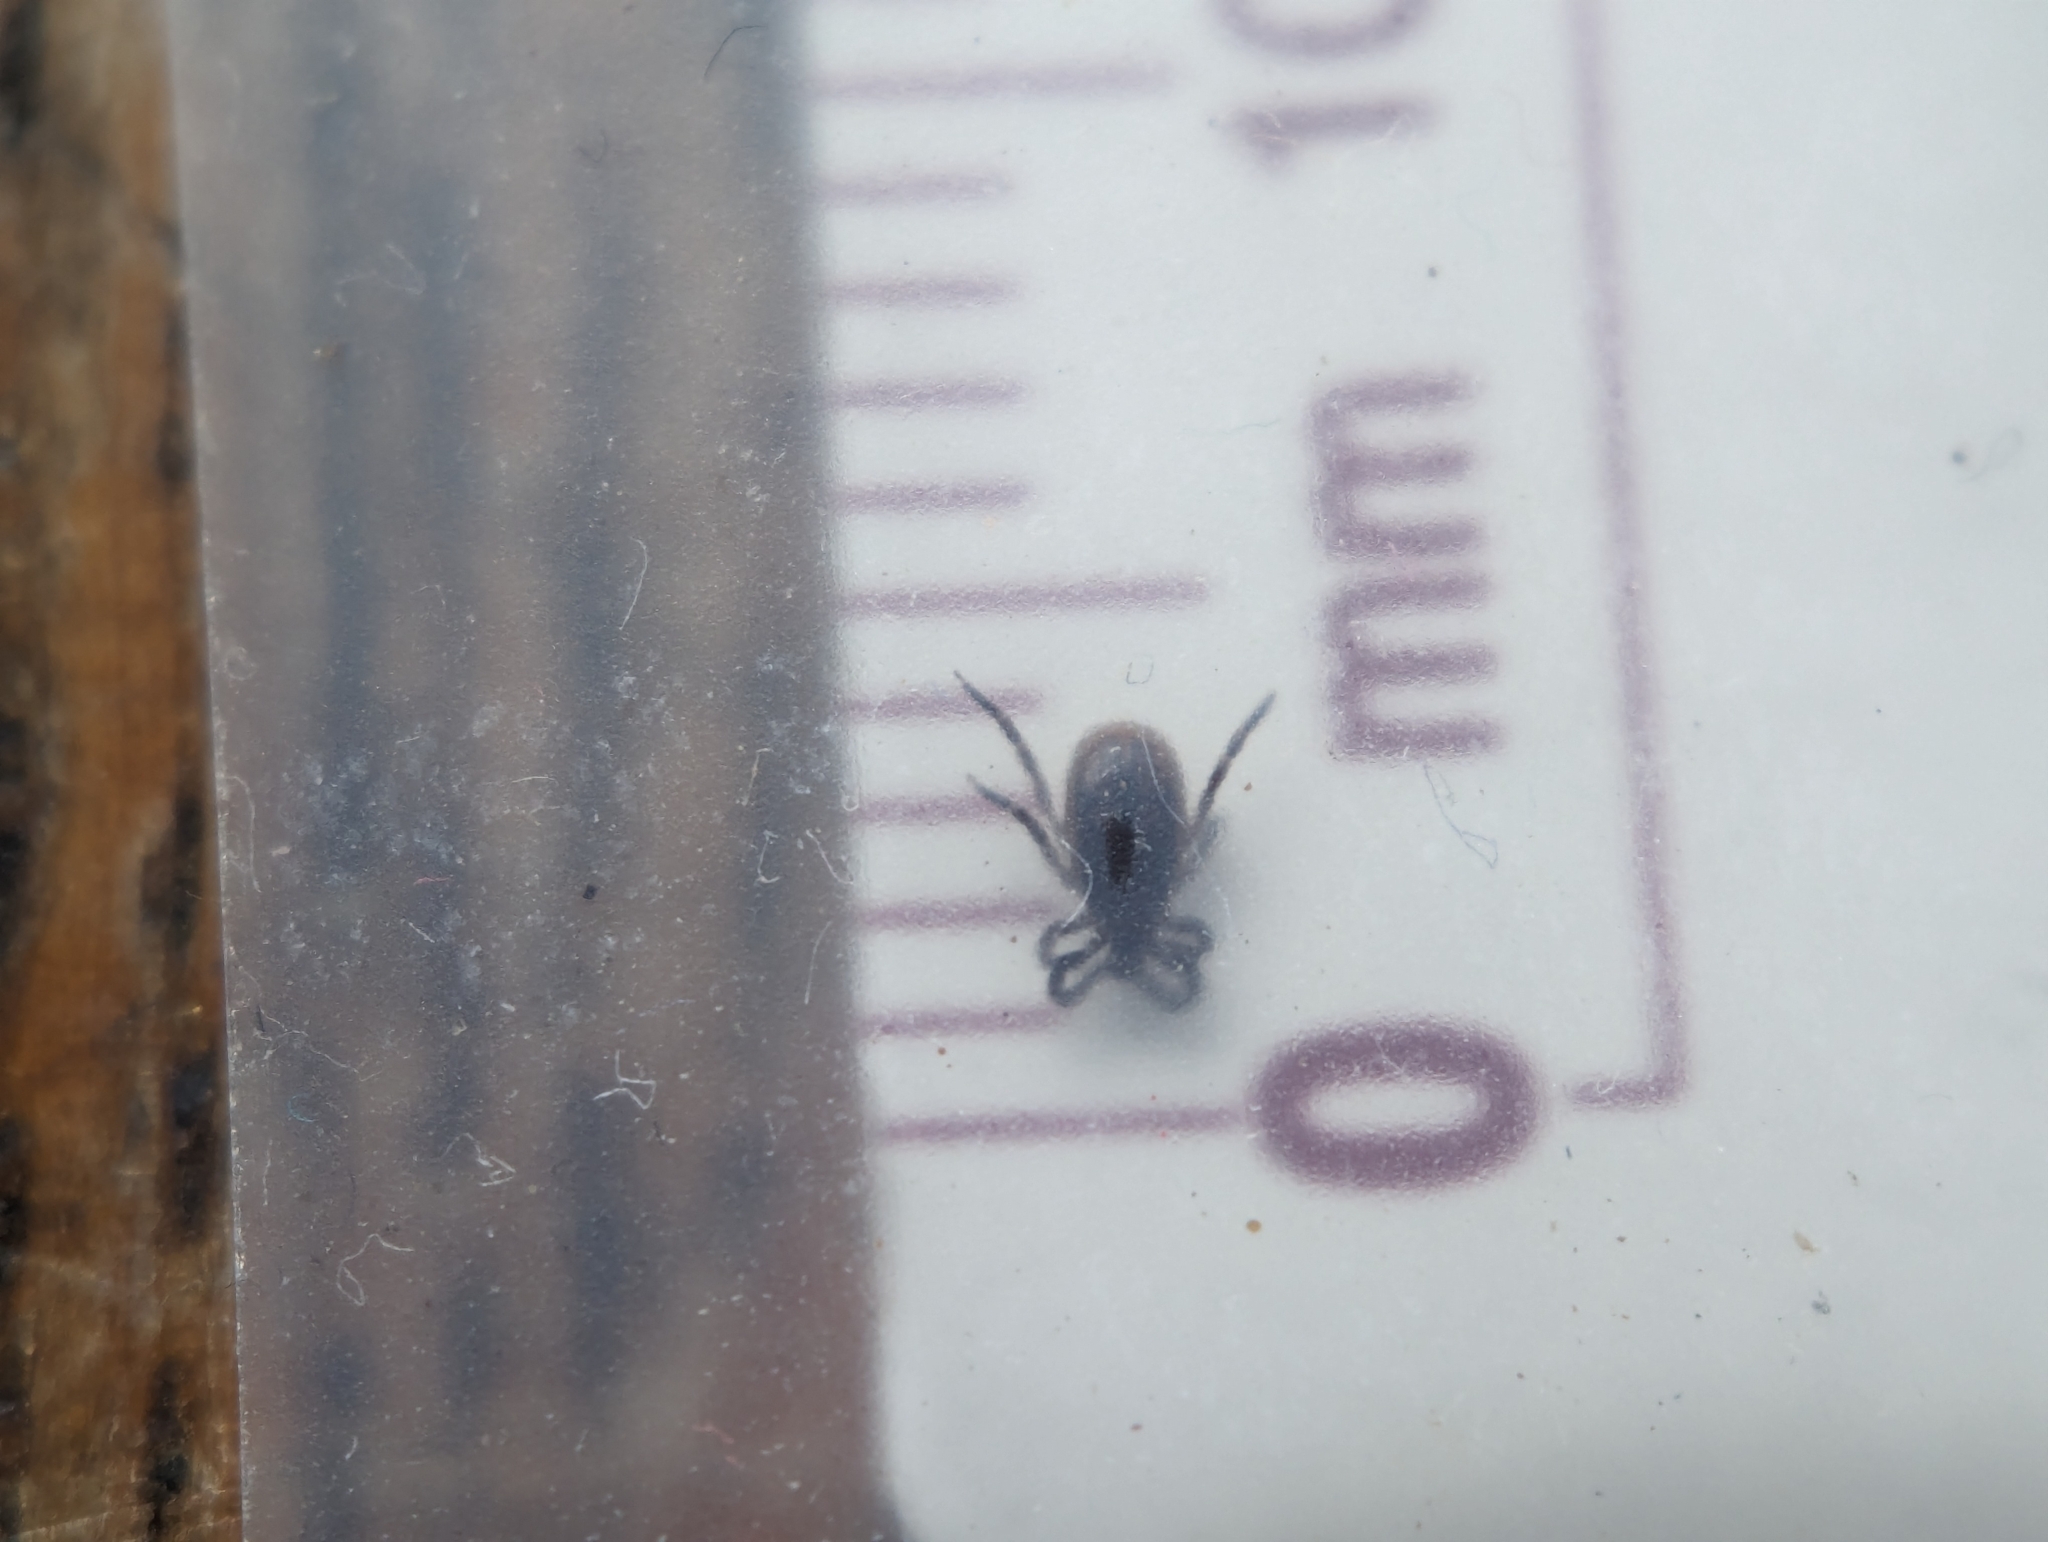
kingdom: Animalia
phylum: Arthropoda
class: Arachnida
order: Ixodida
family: Ixodidae
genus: Ixodes
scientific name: Ixodes scapularis
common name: Black legged tick
